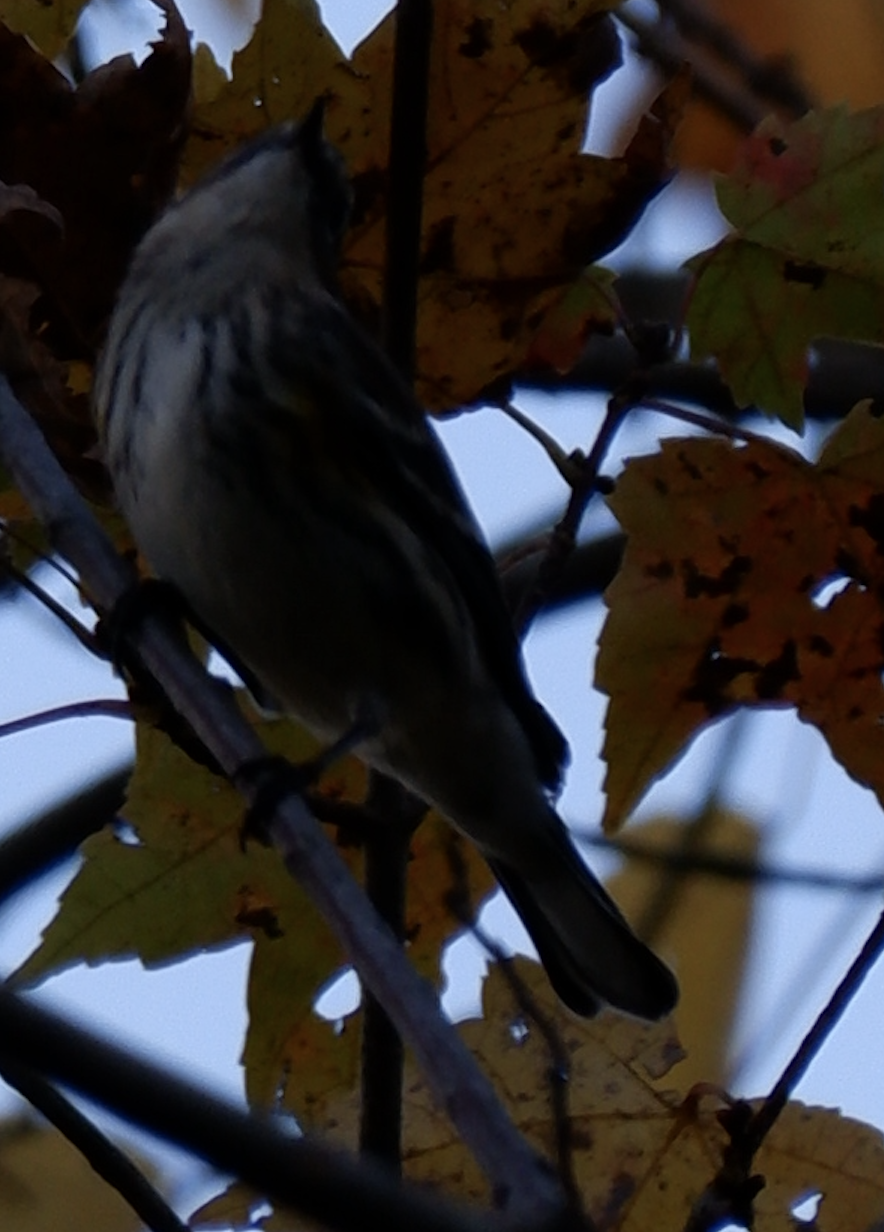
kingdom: Animalia
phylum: Chordata
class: Aves
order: Passeriformes
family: Parulidae
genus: Setophaga
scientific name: Setophaga coronata
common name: Myrtle warbler
